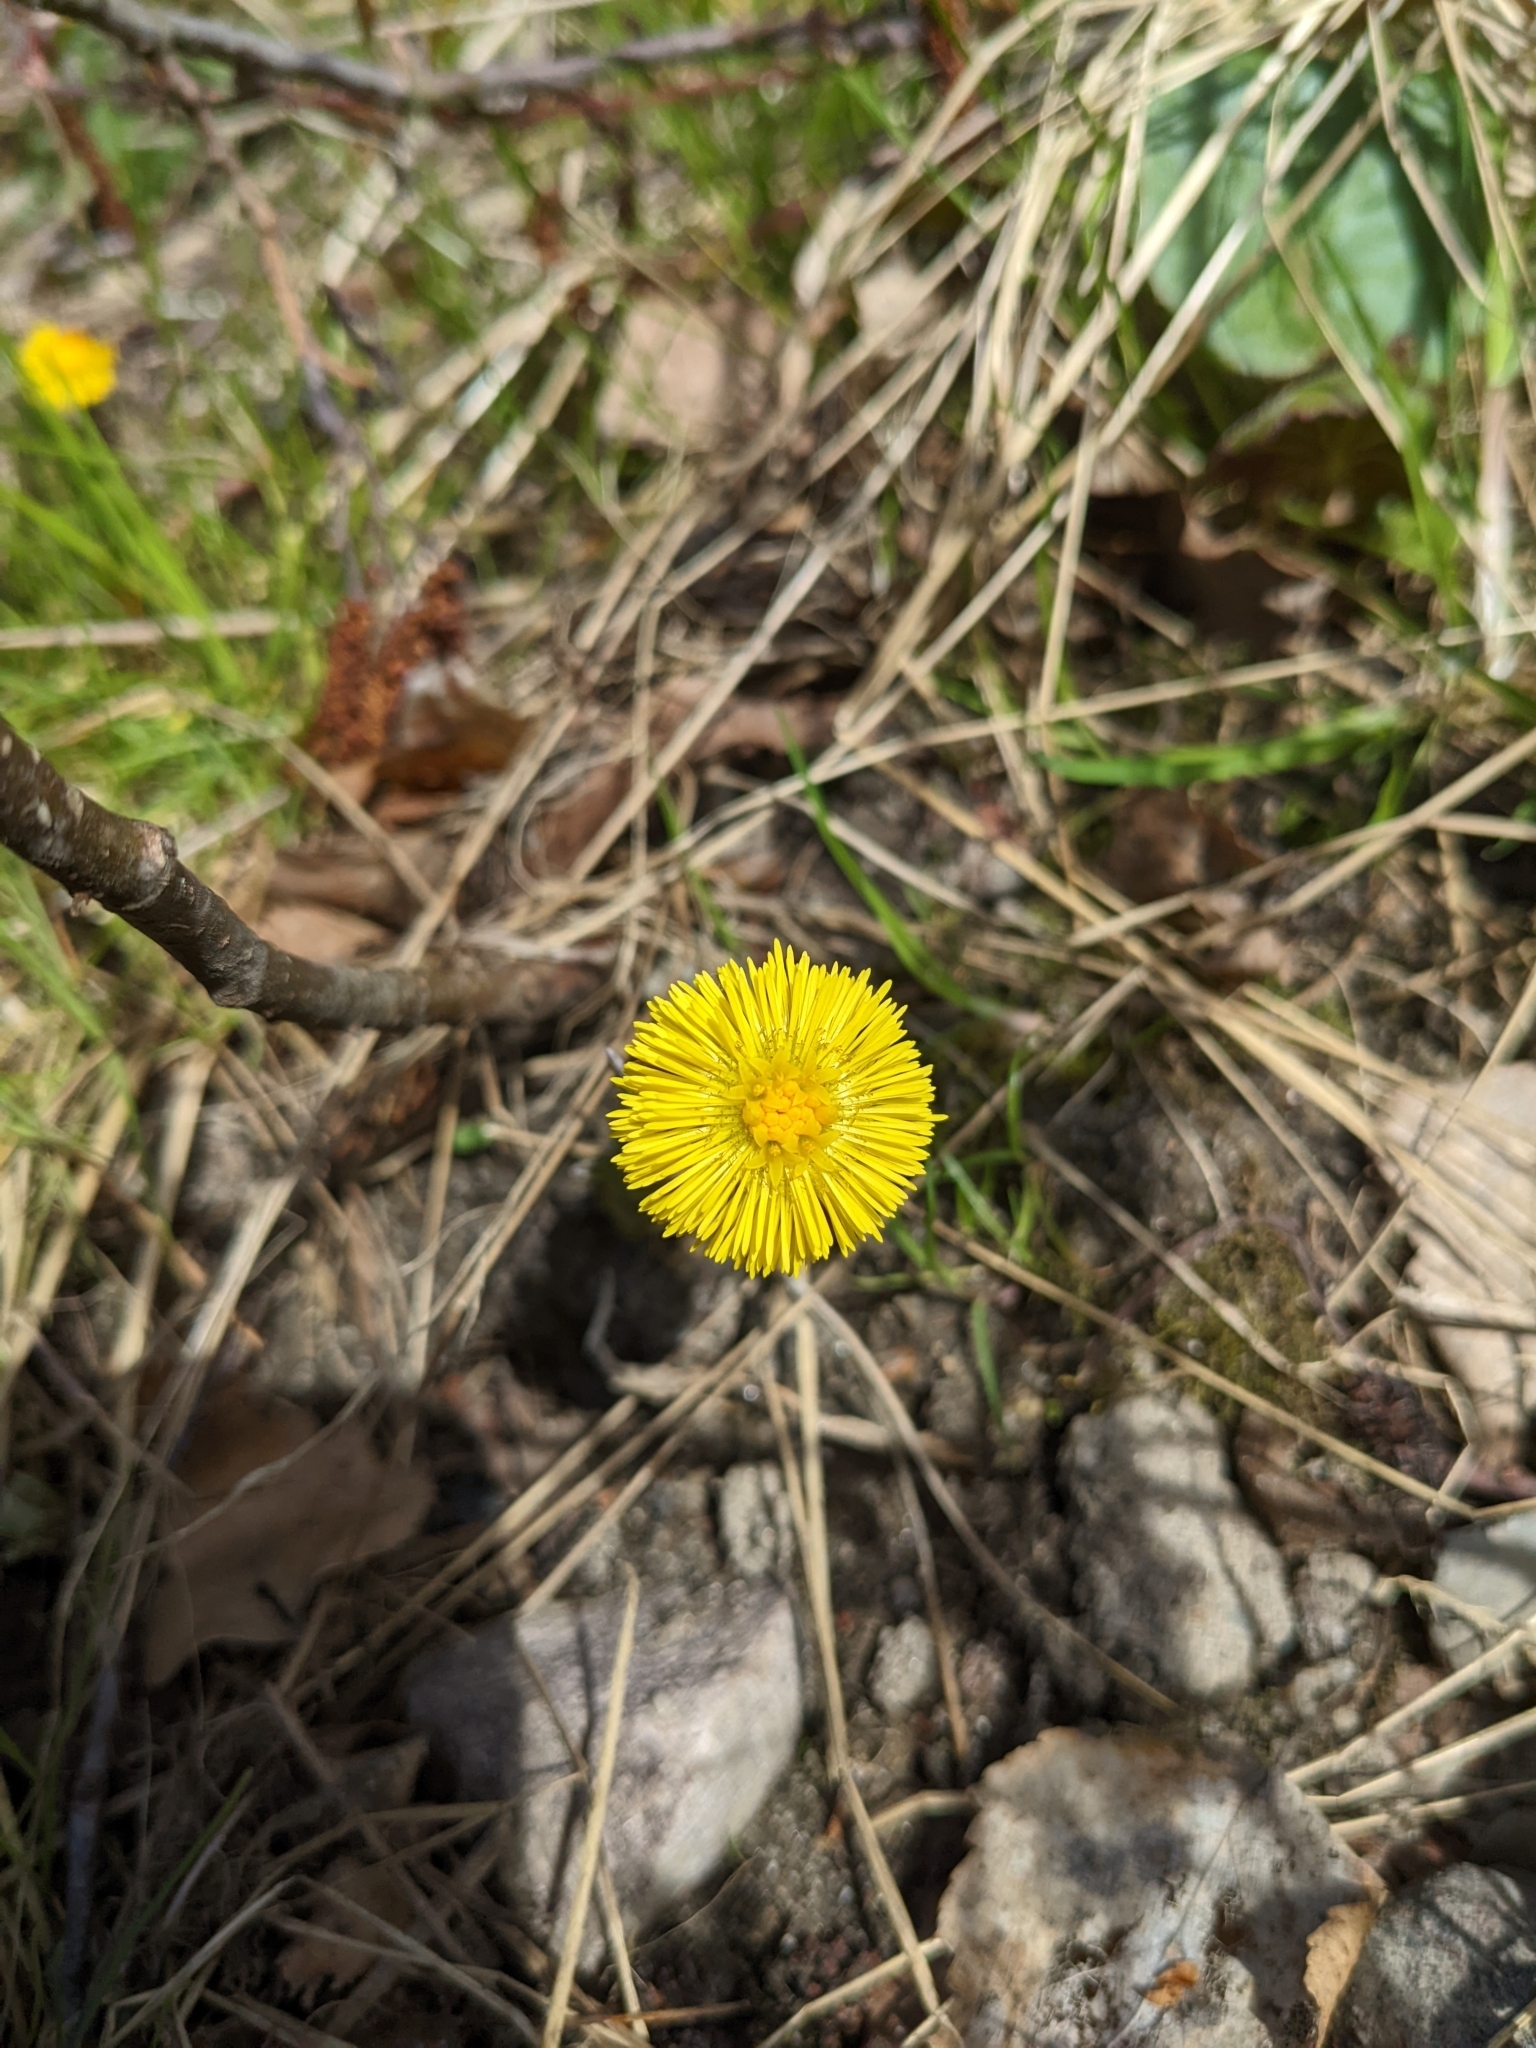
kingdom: Plantae
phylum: Tracheophyta
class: Magnoliopsida
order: Asterales
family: Asteraceae
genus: Tussilago
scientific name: Tussilago farfara
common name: Coltsfoot
